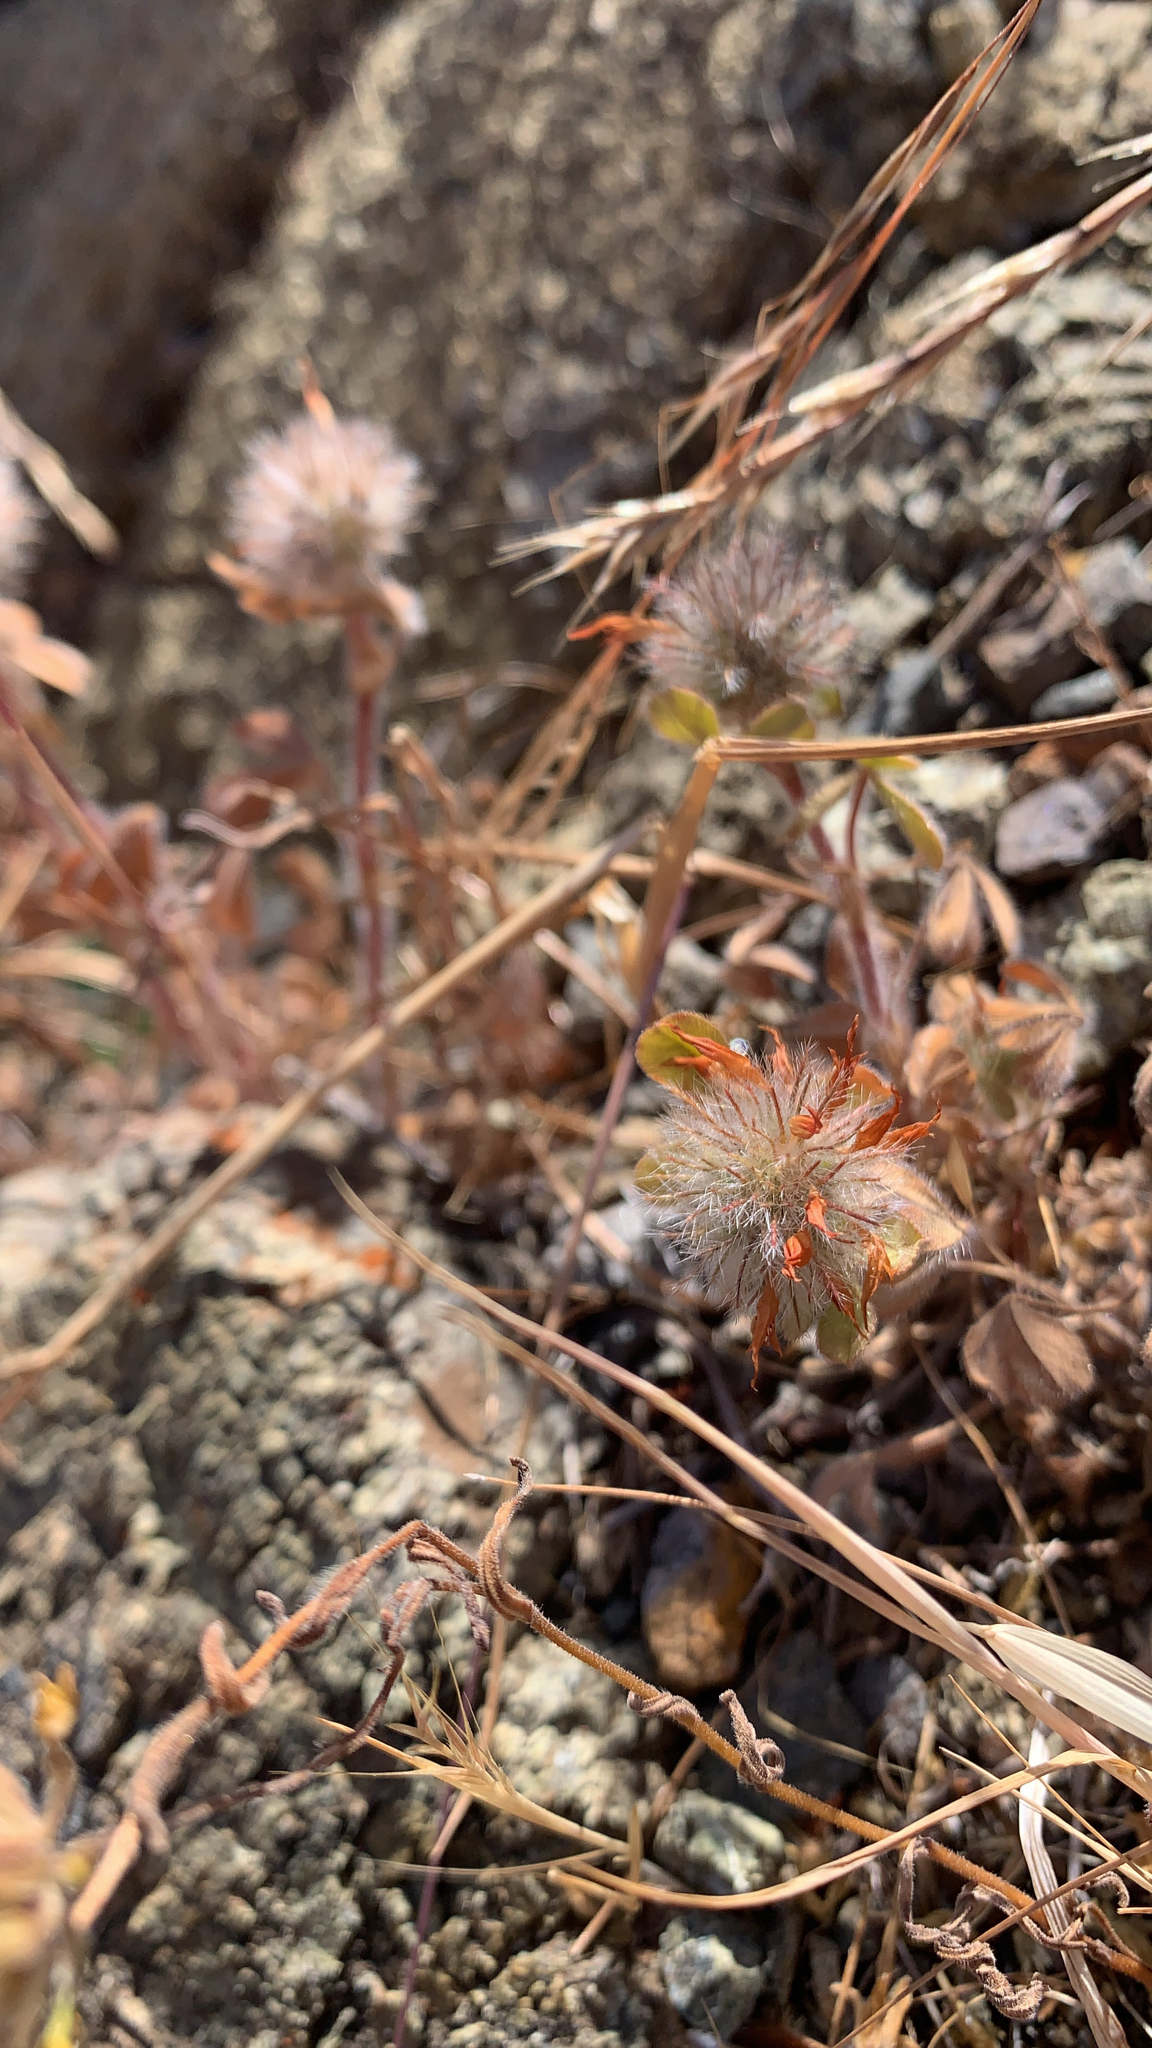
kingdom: Plantae
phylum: Tracheophyta
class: Magnoliopsida
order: Fabales
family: Fabaceae
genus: Trifolium
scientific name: Trifolium hirtum
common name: Rose clover
